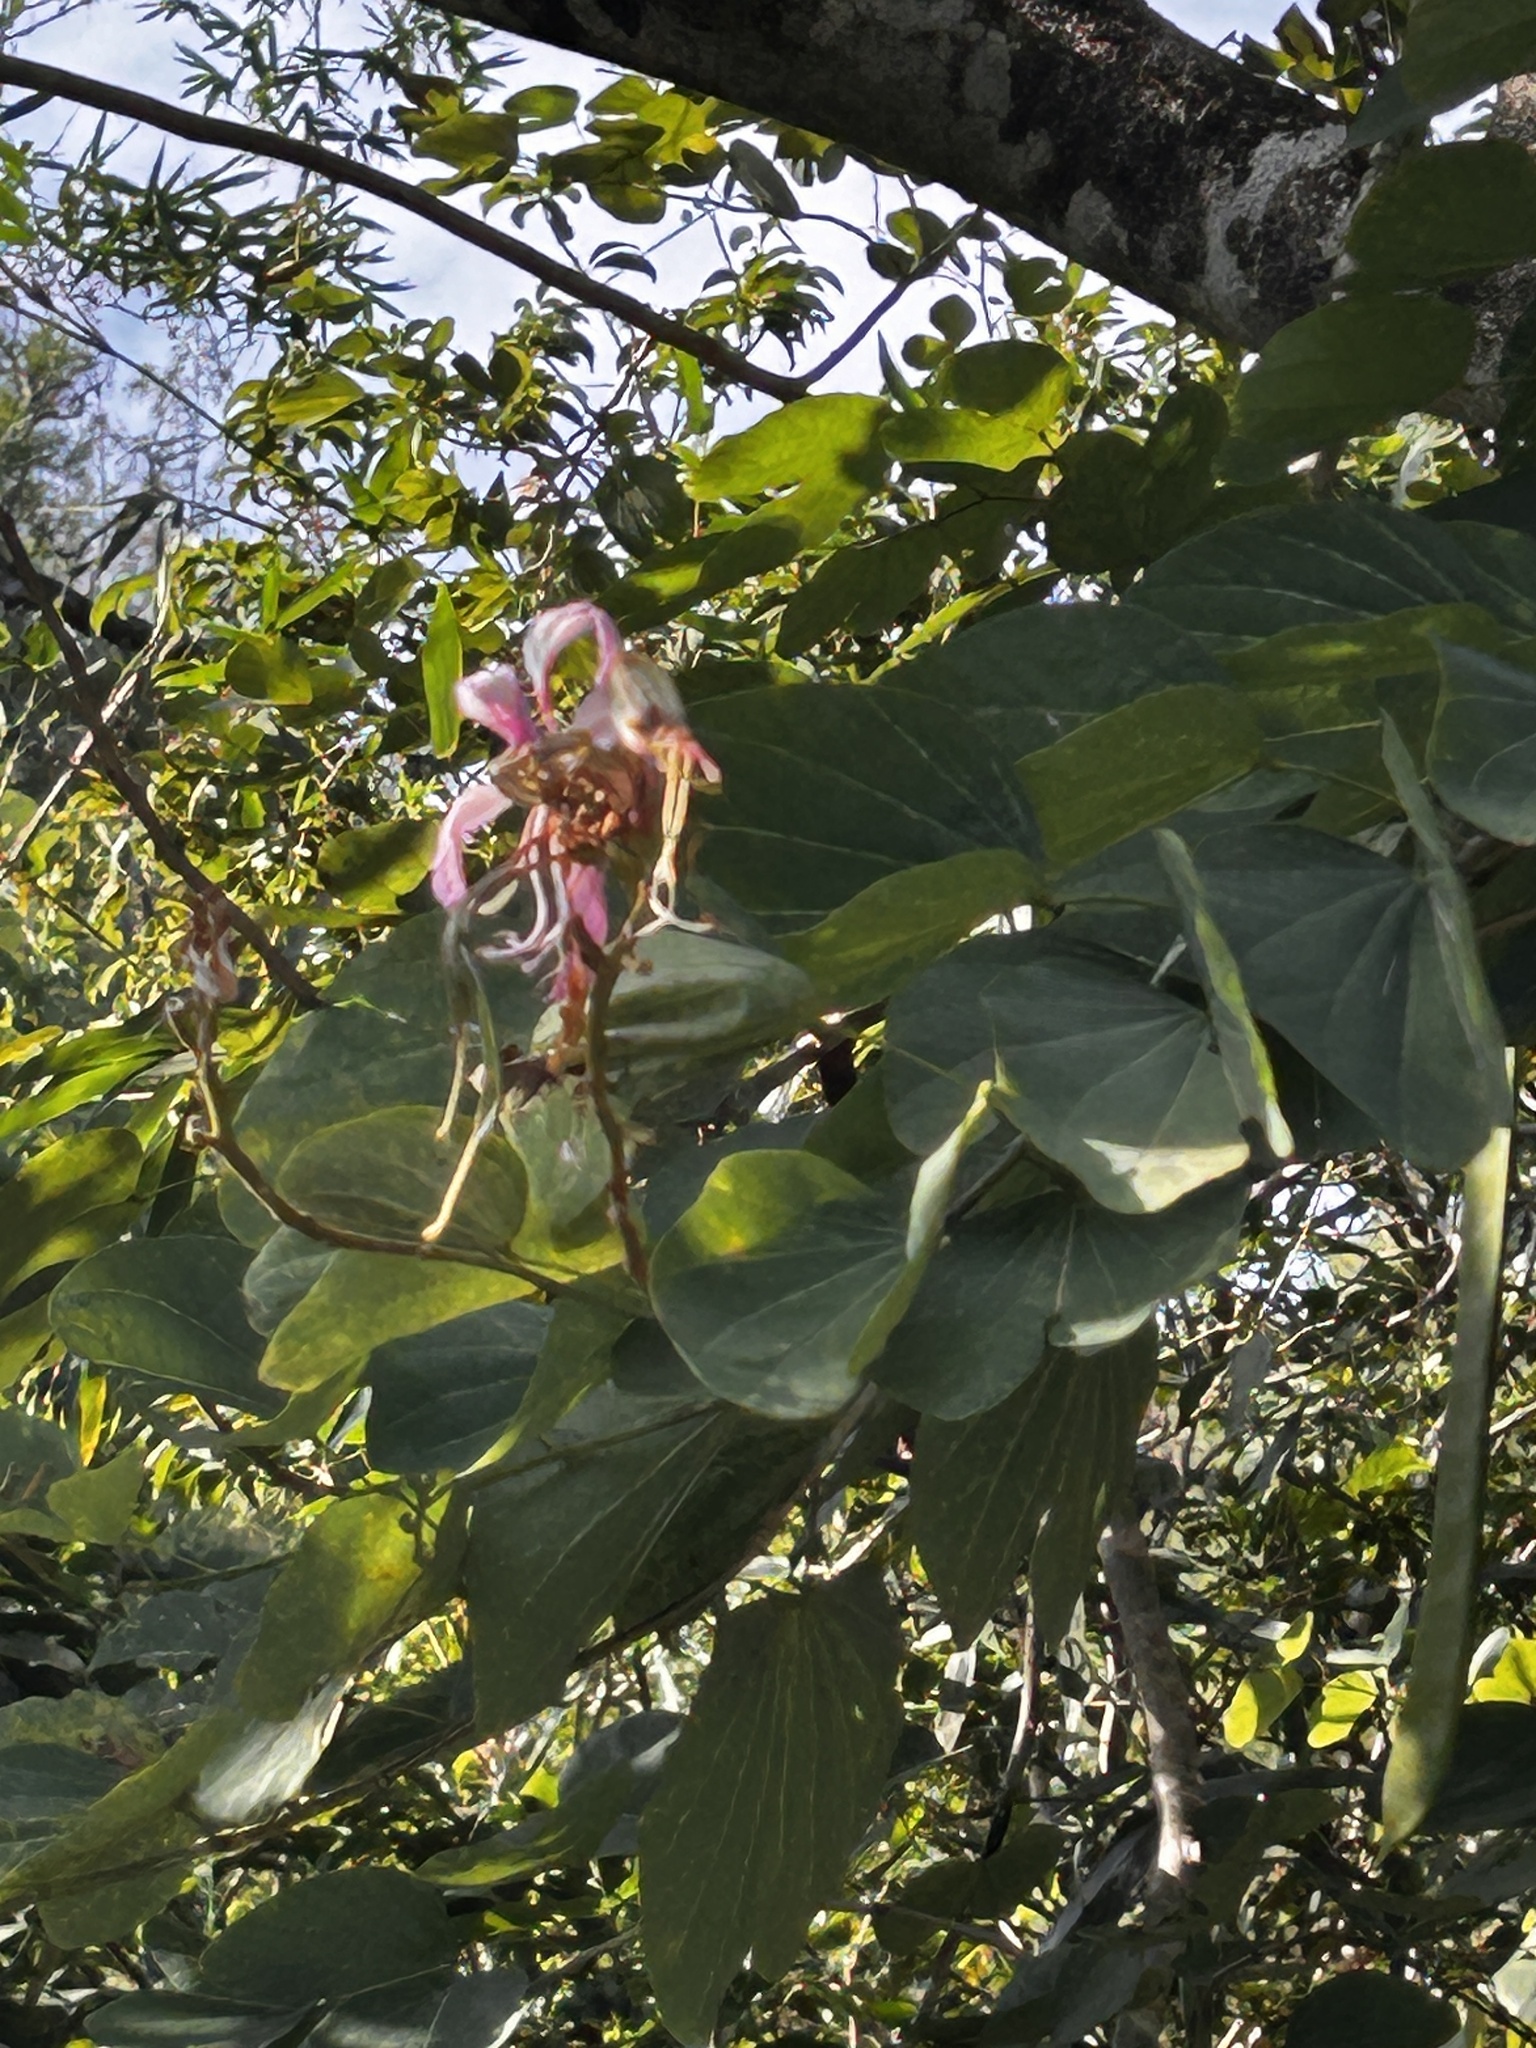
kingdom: Plantae
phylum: Tracheophyta
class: Magnoliopsida
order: Fabales
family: Fabaceae
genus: Bauhinia
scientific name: Bauhinia purpurea
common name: Butterfly-tree
